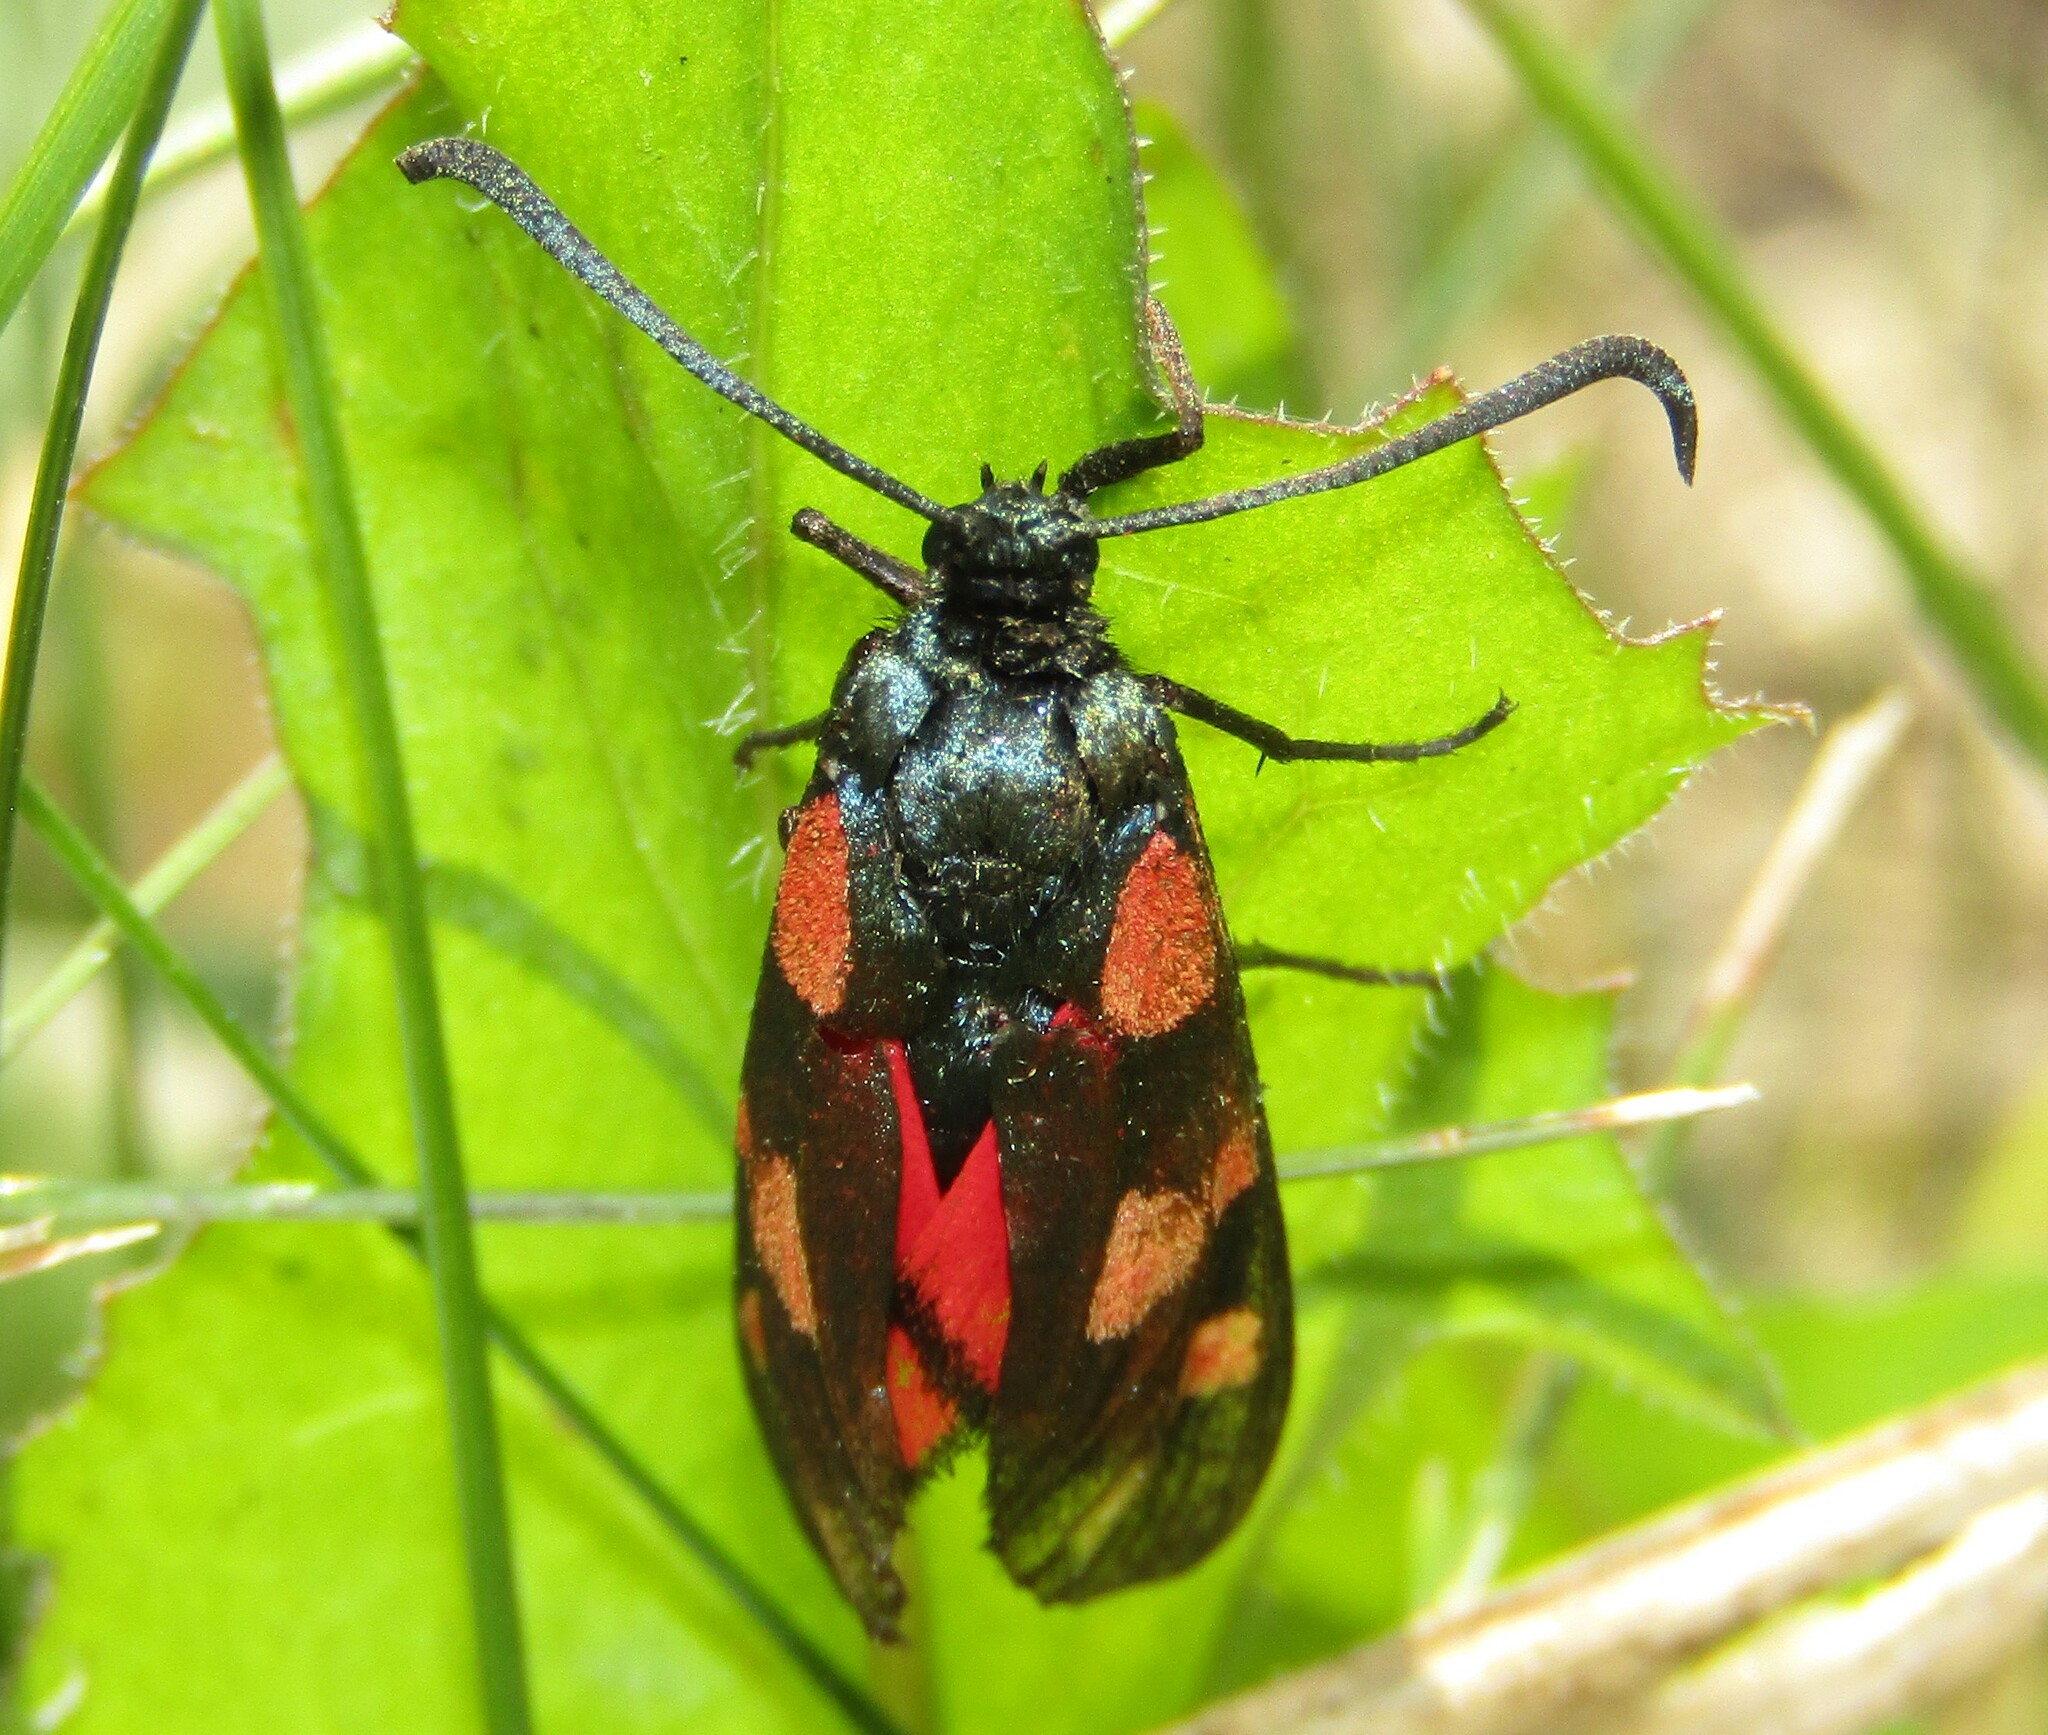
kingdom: Animalia
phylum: Arthropoda
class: Insecta
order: Lepidoptera
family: Zygaenidae
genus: Zygaena
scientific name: Zygaena filipendulae
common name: Six-spot burnet
